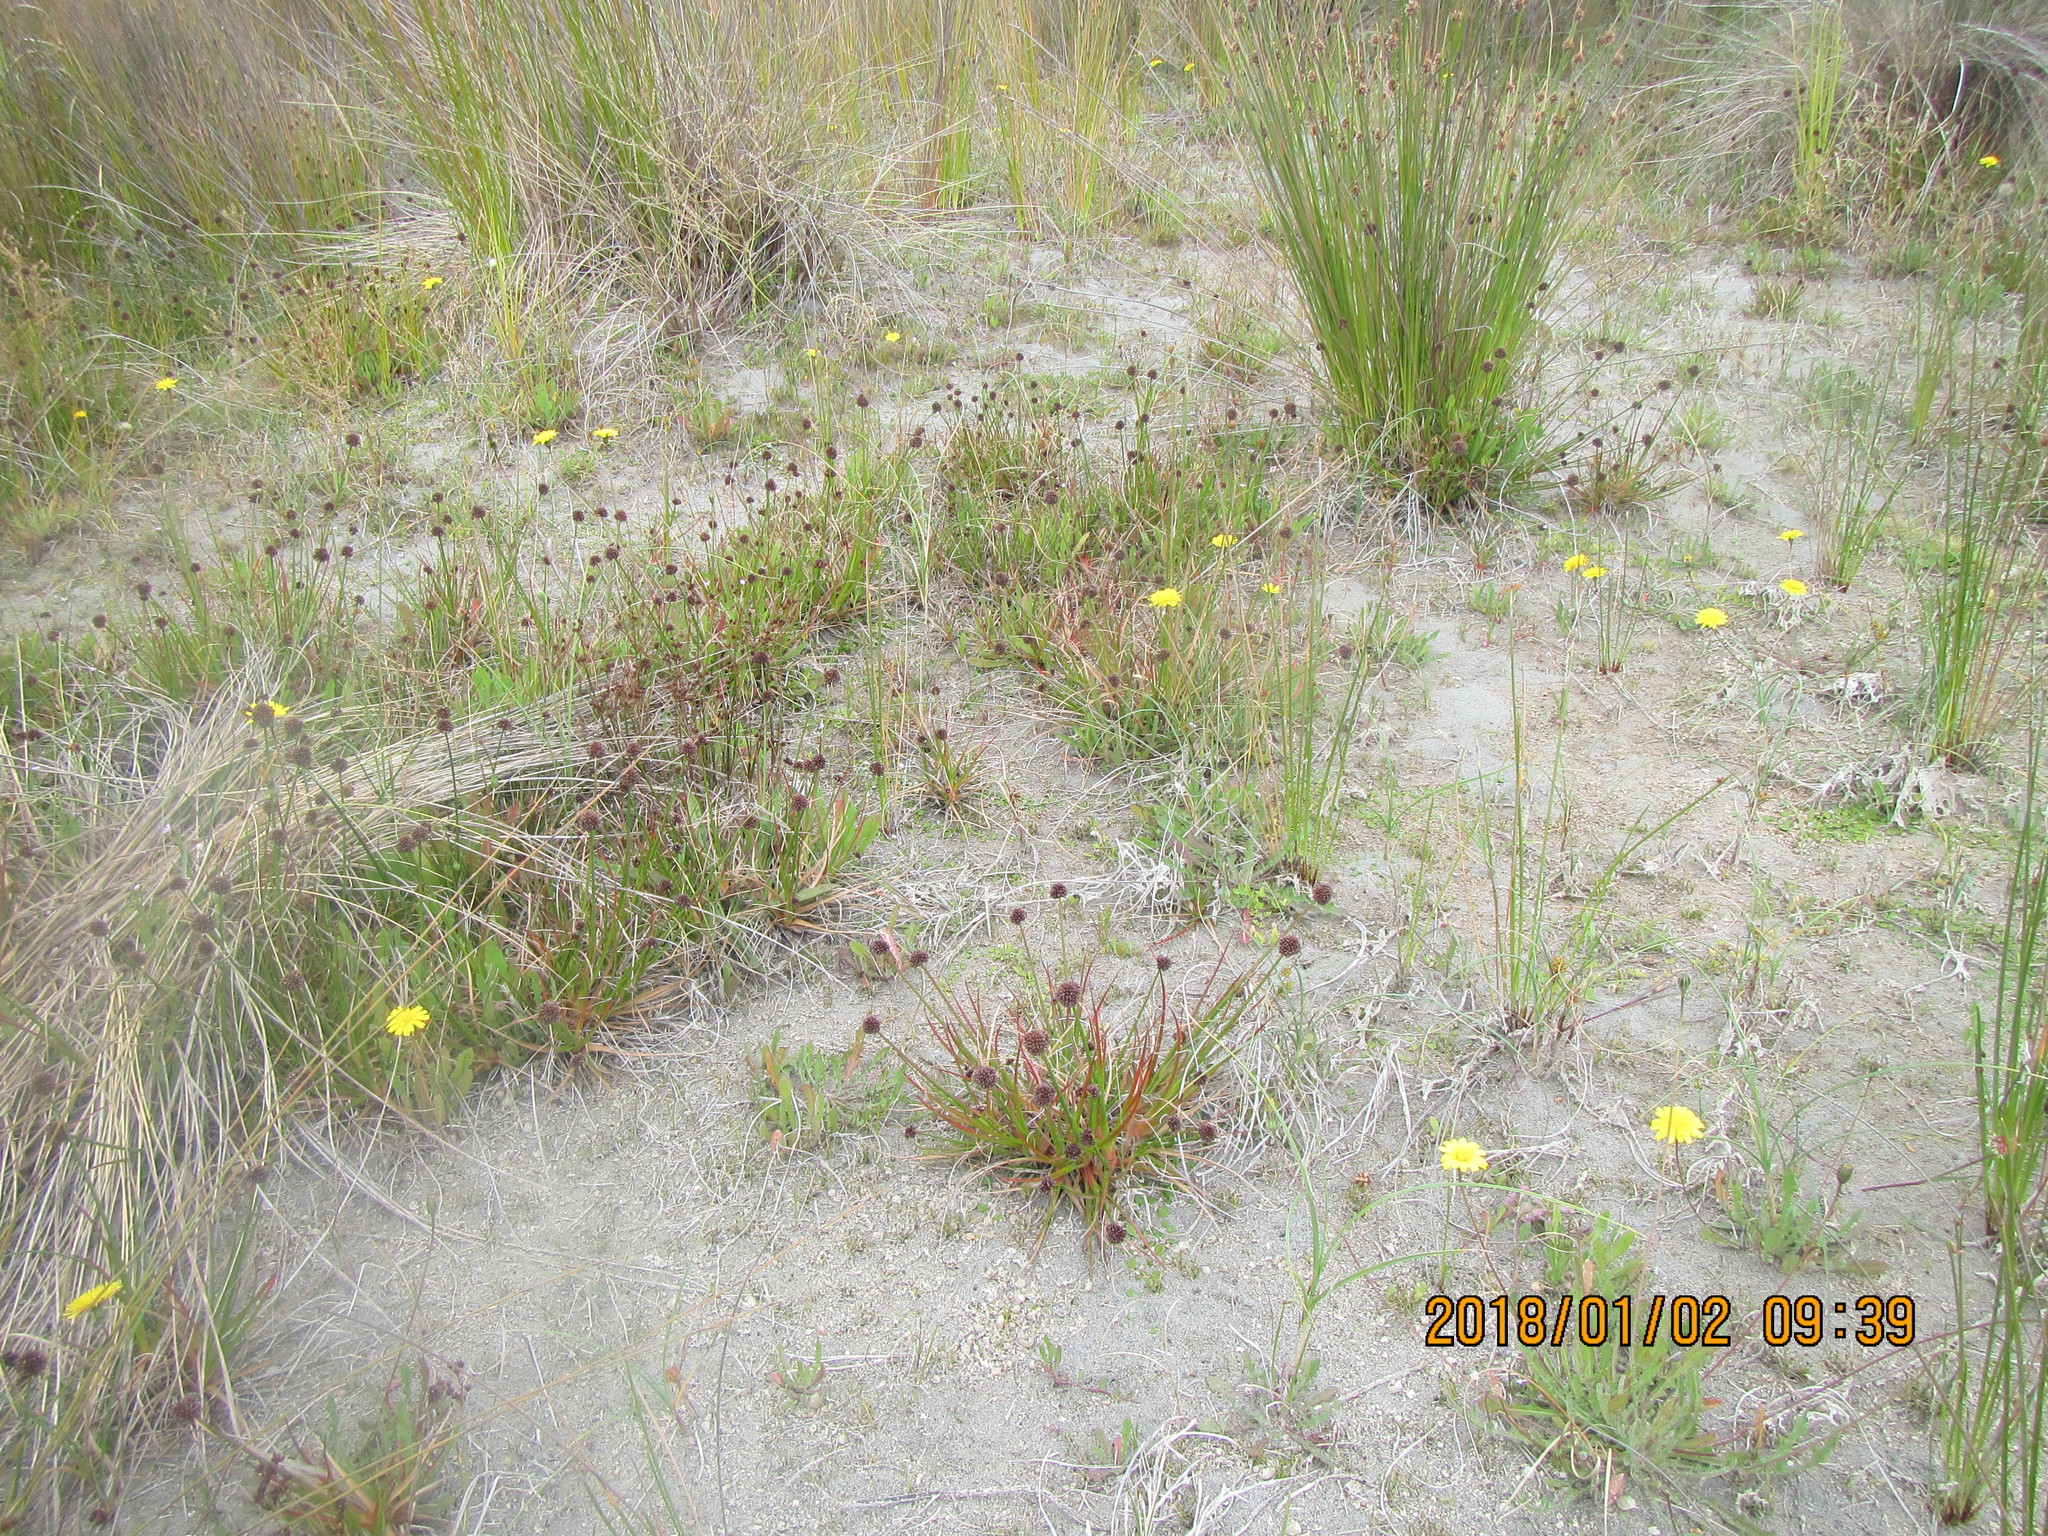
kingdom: Plantae
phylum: Tracheophyta
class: Liliopsida
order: Poales
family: Juncaceae
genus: Juncus
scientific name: Juncus caespiticius
